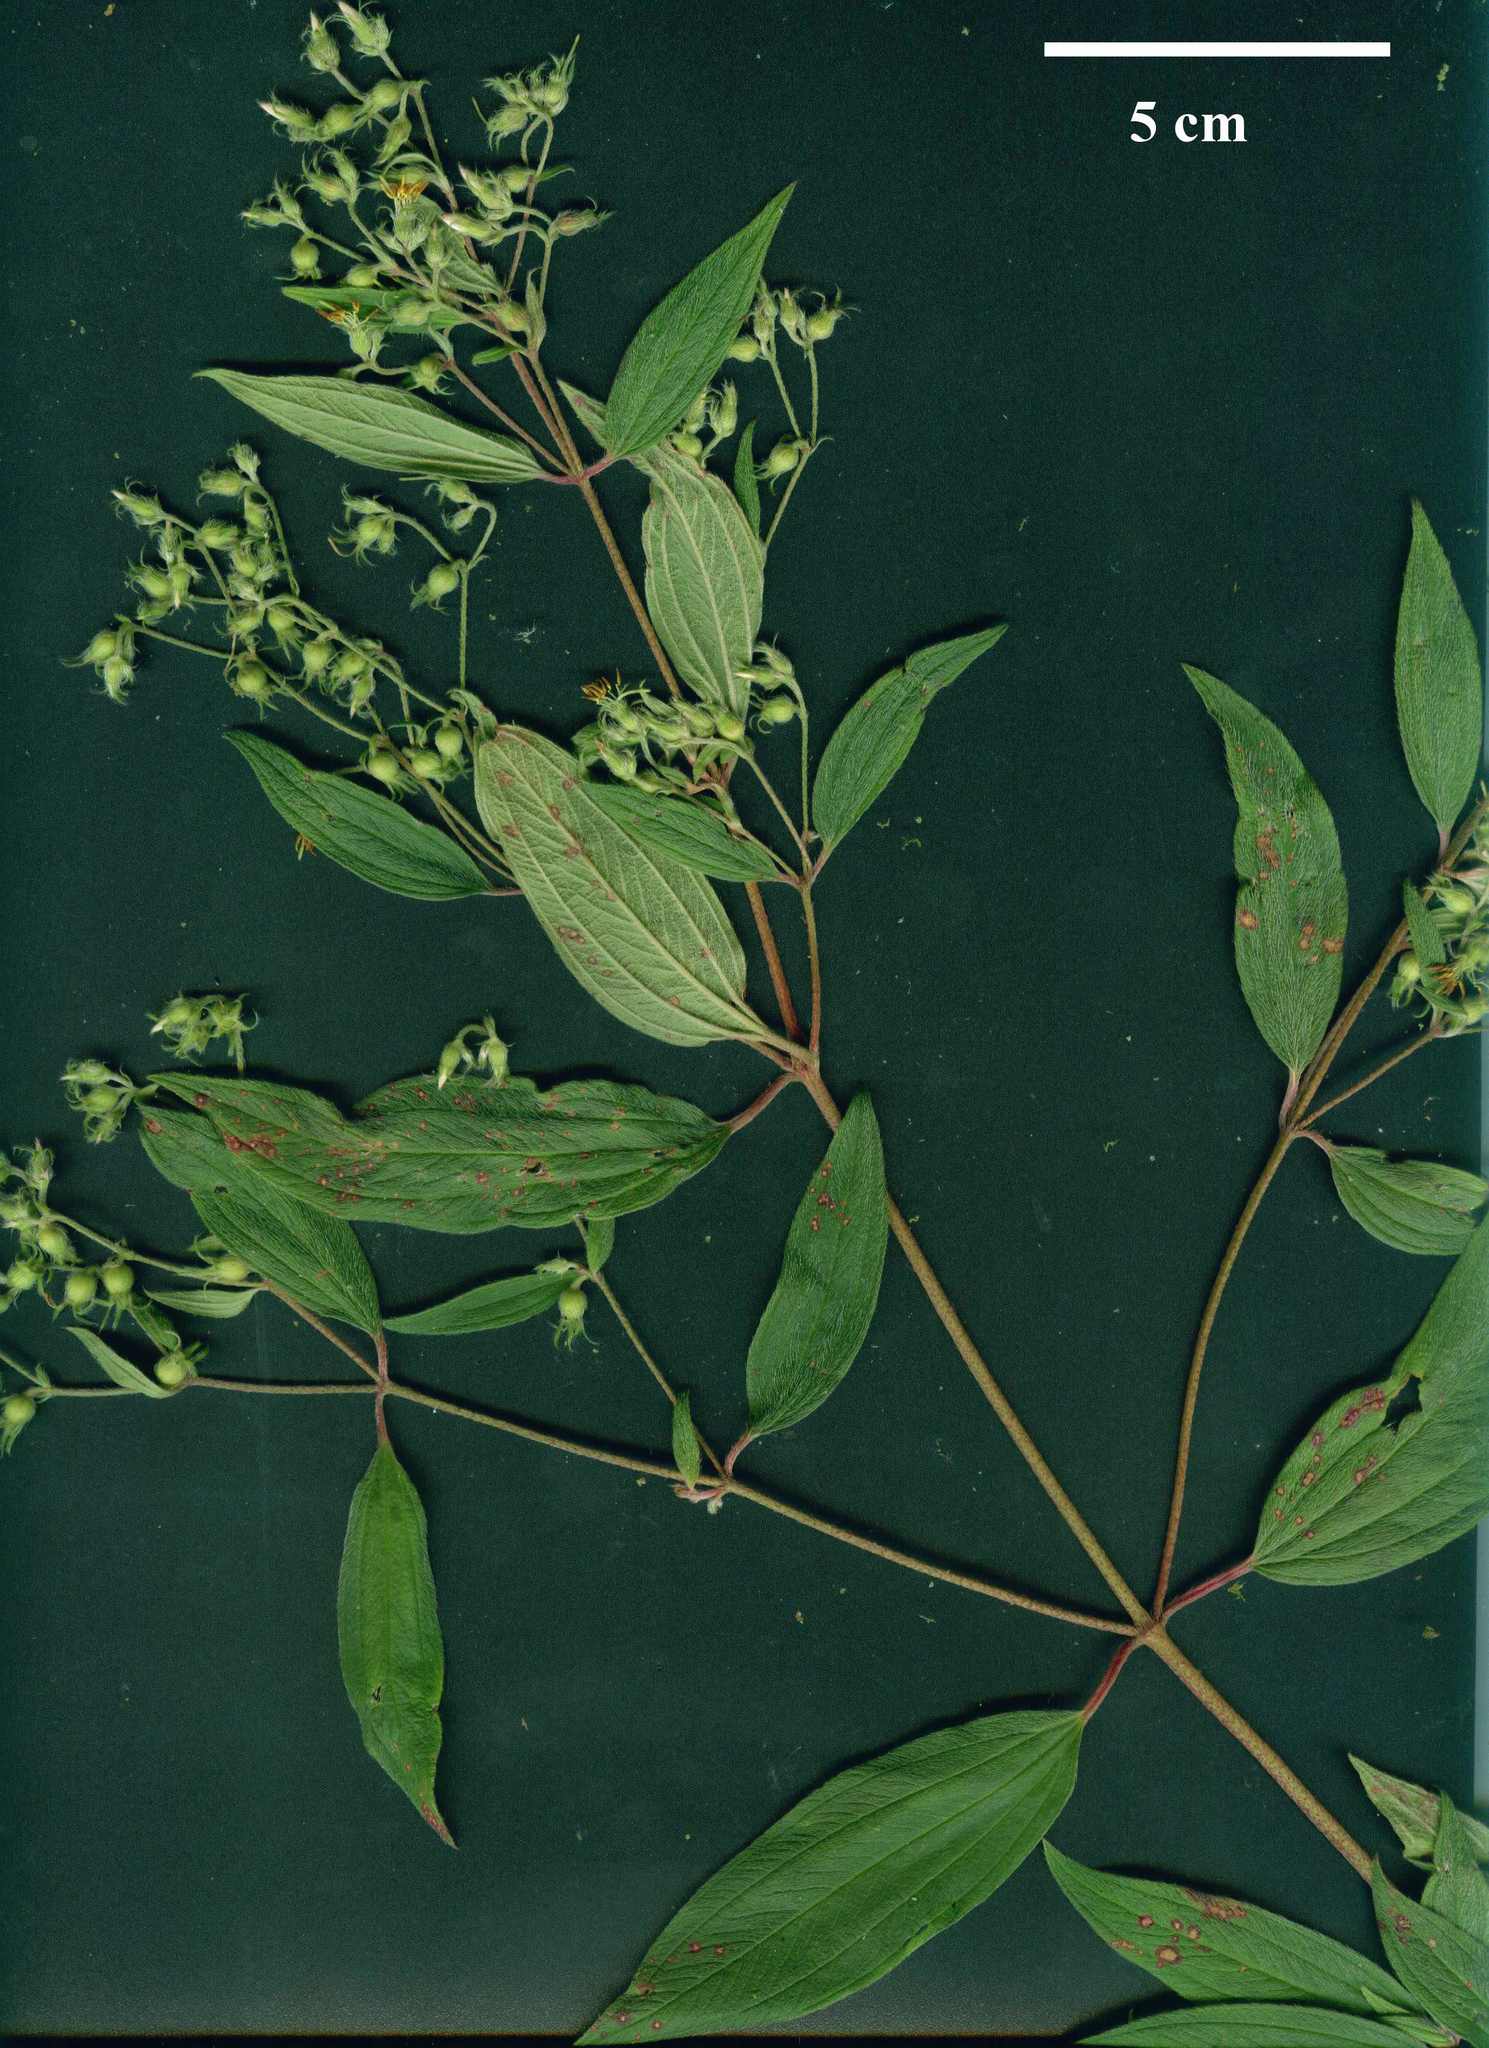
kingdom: Plantae
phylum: Tracheophyta
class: Magnoliopsida
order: Myrtales
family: Melastomataceae
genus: Chaetogastra
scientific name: Chaetogastra longifolia
